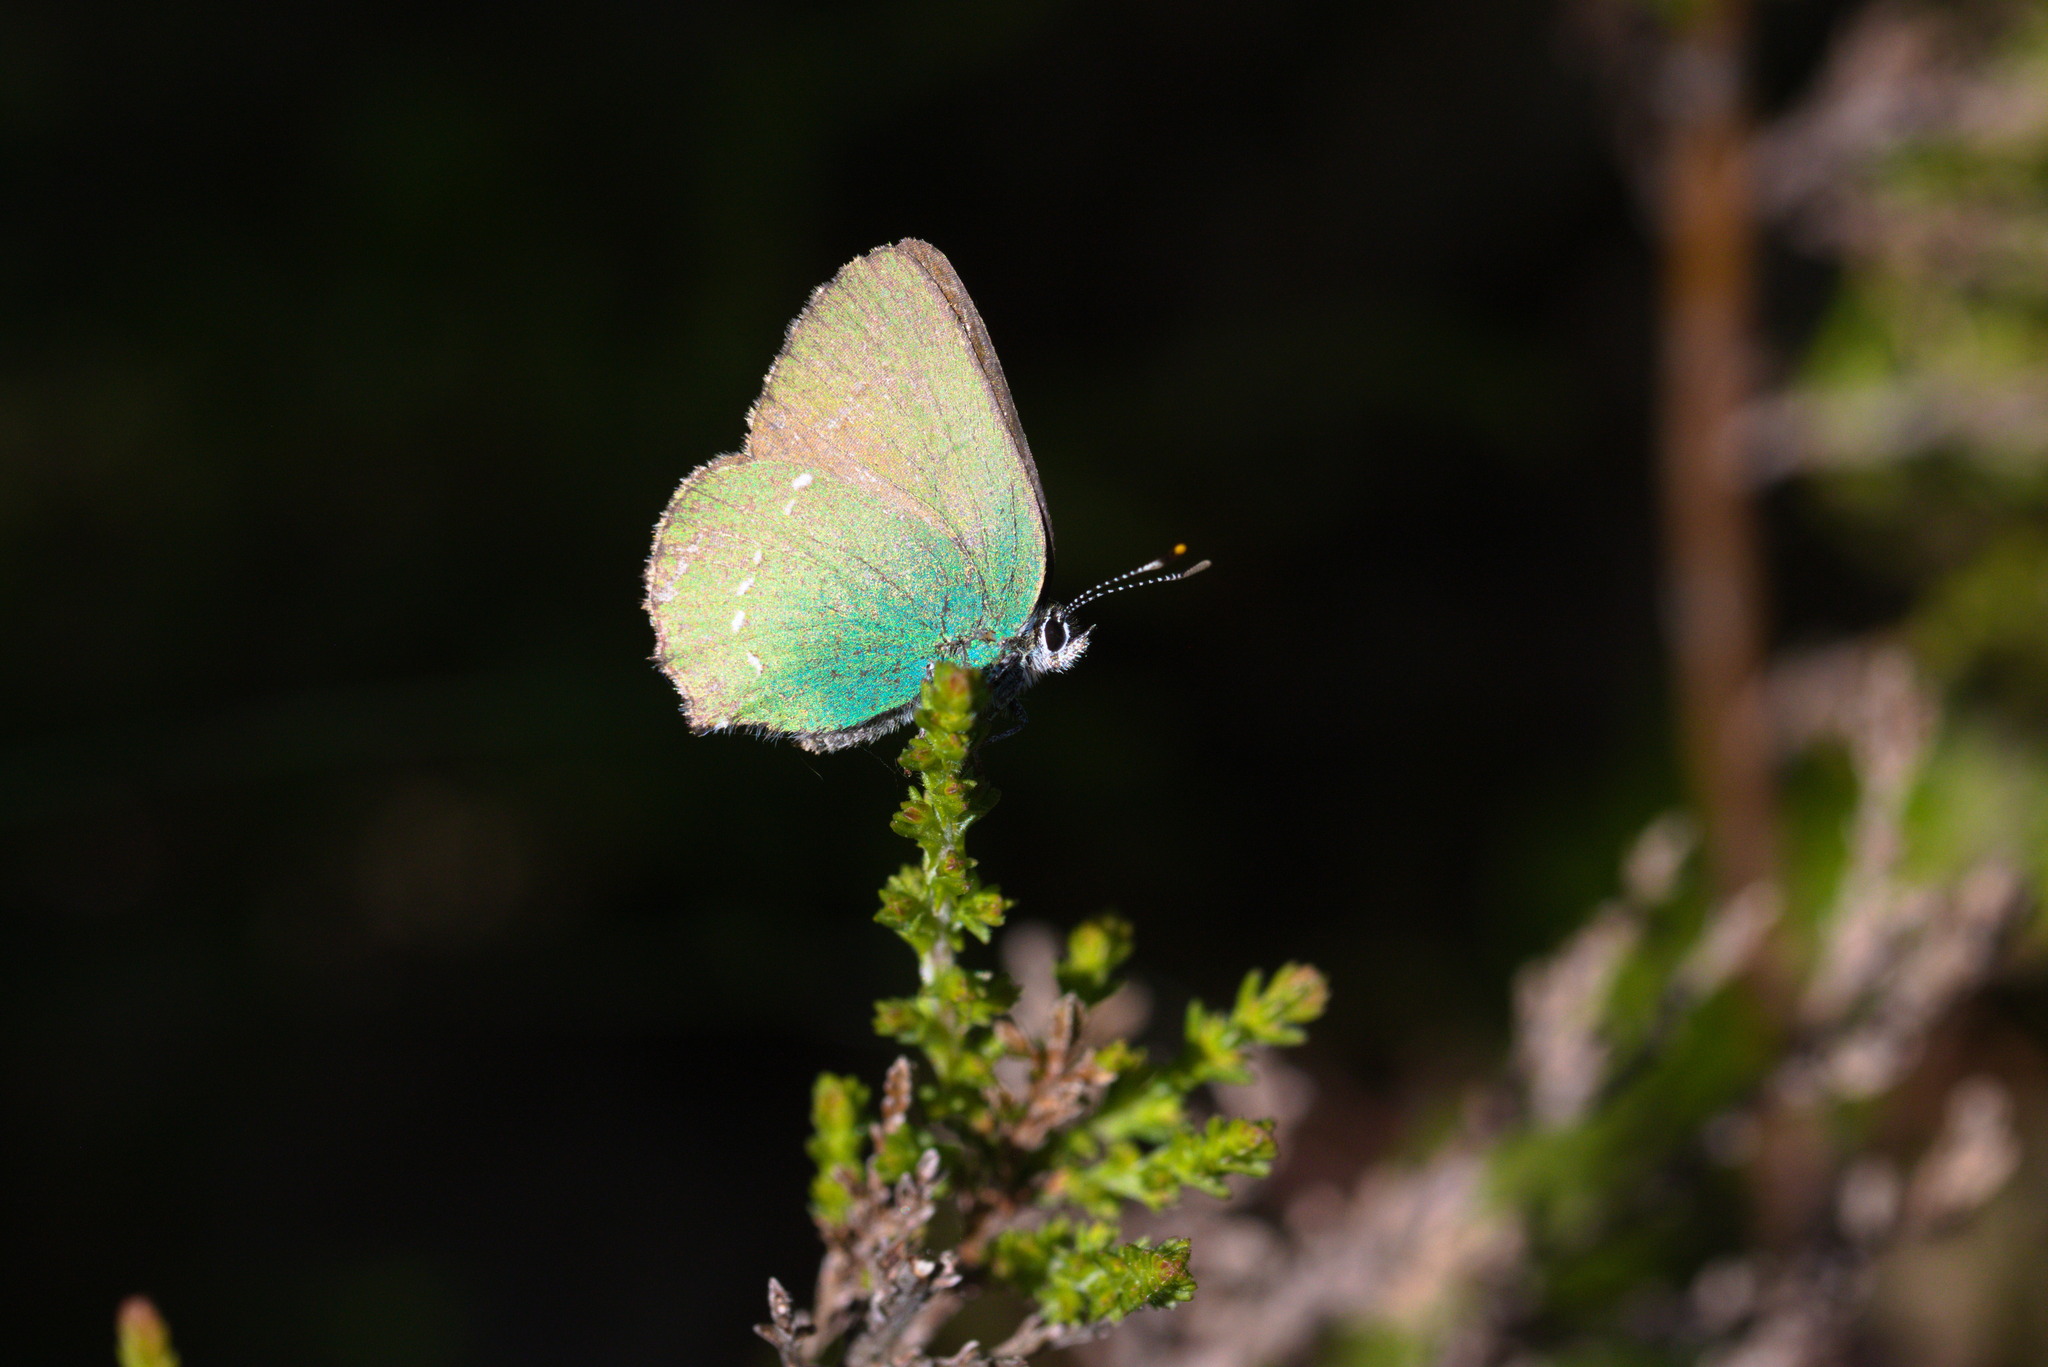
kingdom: Animalia
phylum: Arthropoda
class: Insecta
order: Lepidoptera
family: Lycaenidae
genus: Callophrys
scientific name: Callophrys rubi
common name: Green hairstreak
